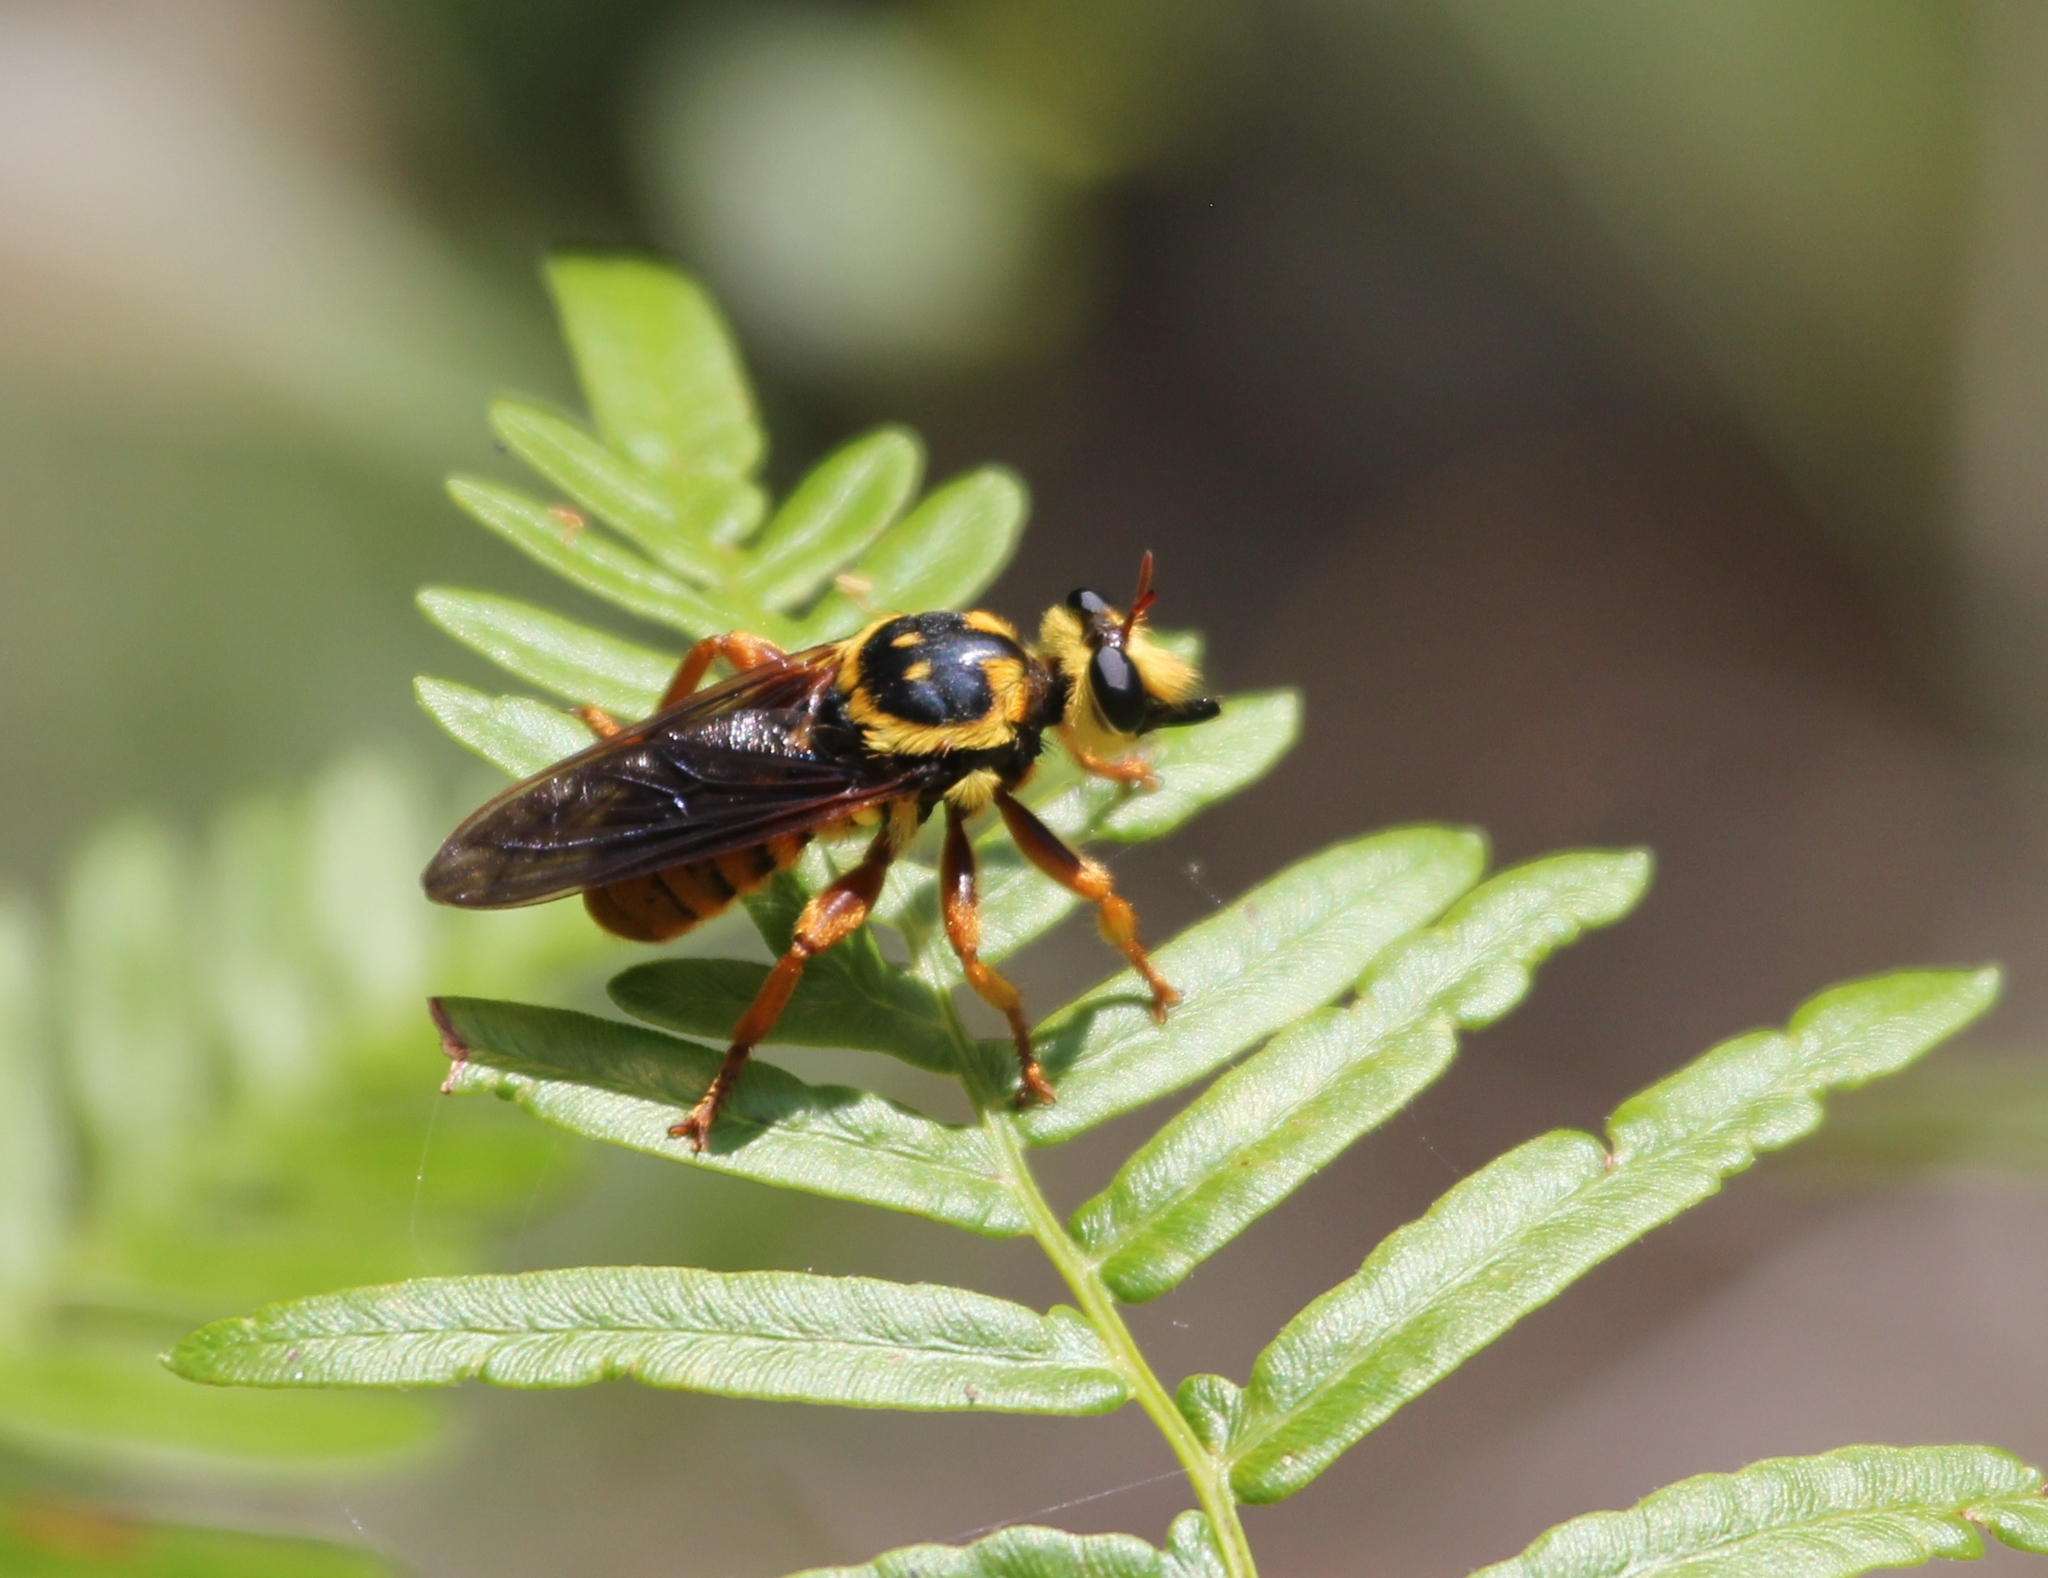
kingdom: Animalia
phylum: Arthropoda
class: Insecta
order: Diptera
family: Asilidae
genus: Laphria
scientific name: Laphria saffrana
